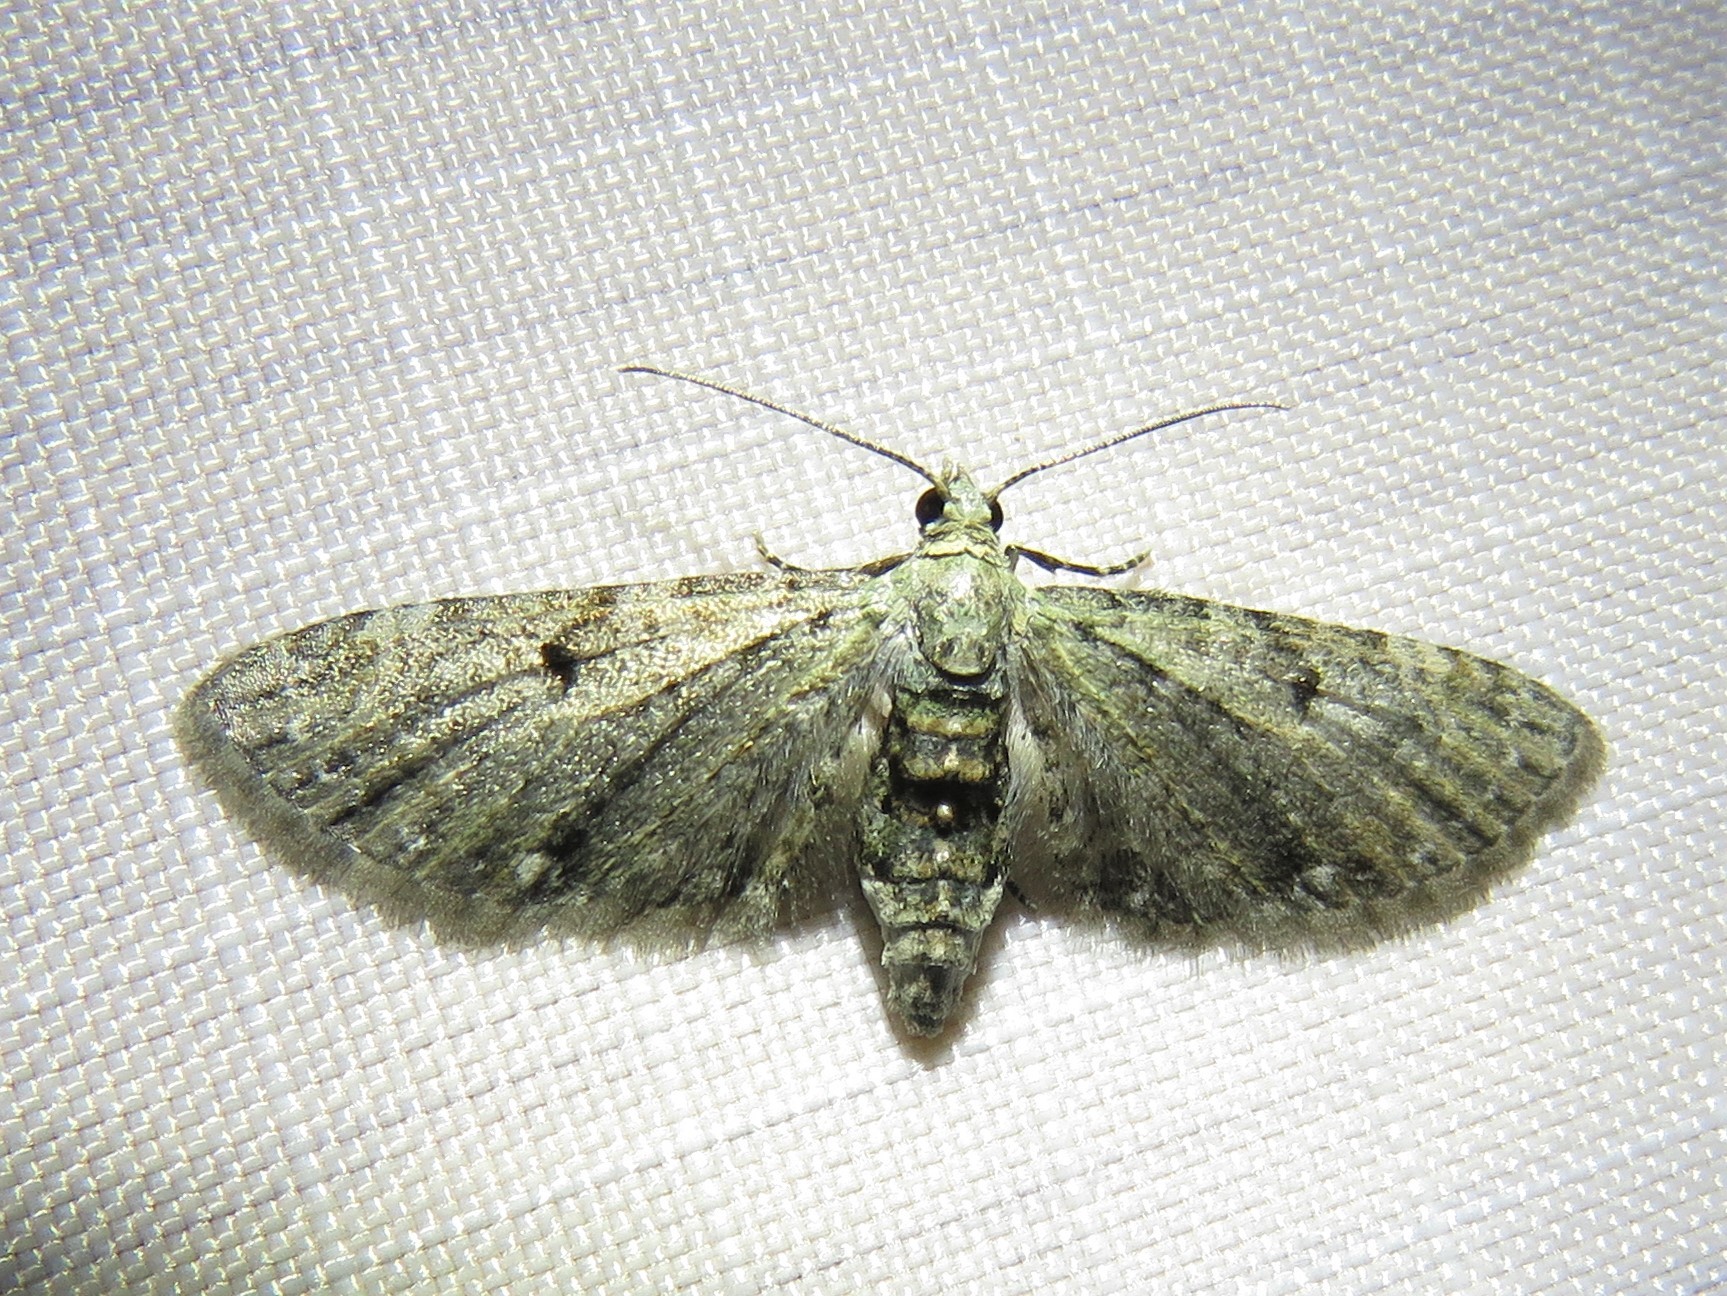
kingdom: Animalia
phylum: Arthropoda
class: Insecta
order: Lepidoptera
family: Geometridae
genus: Eupithecia
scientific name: Eupithecia miserulata
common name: Common eupithecia
